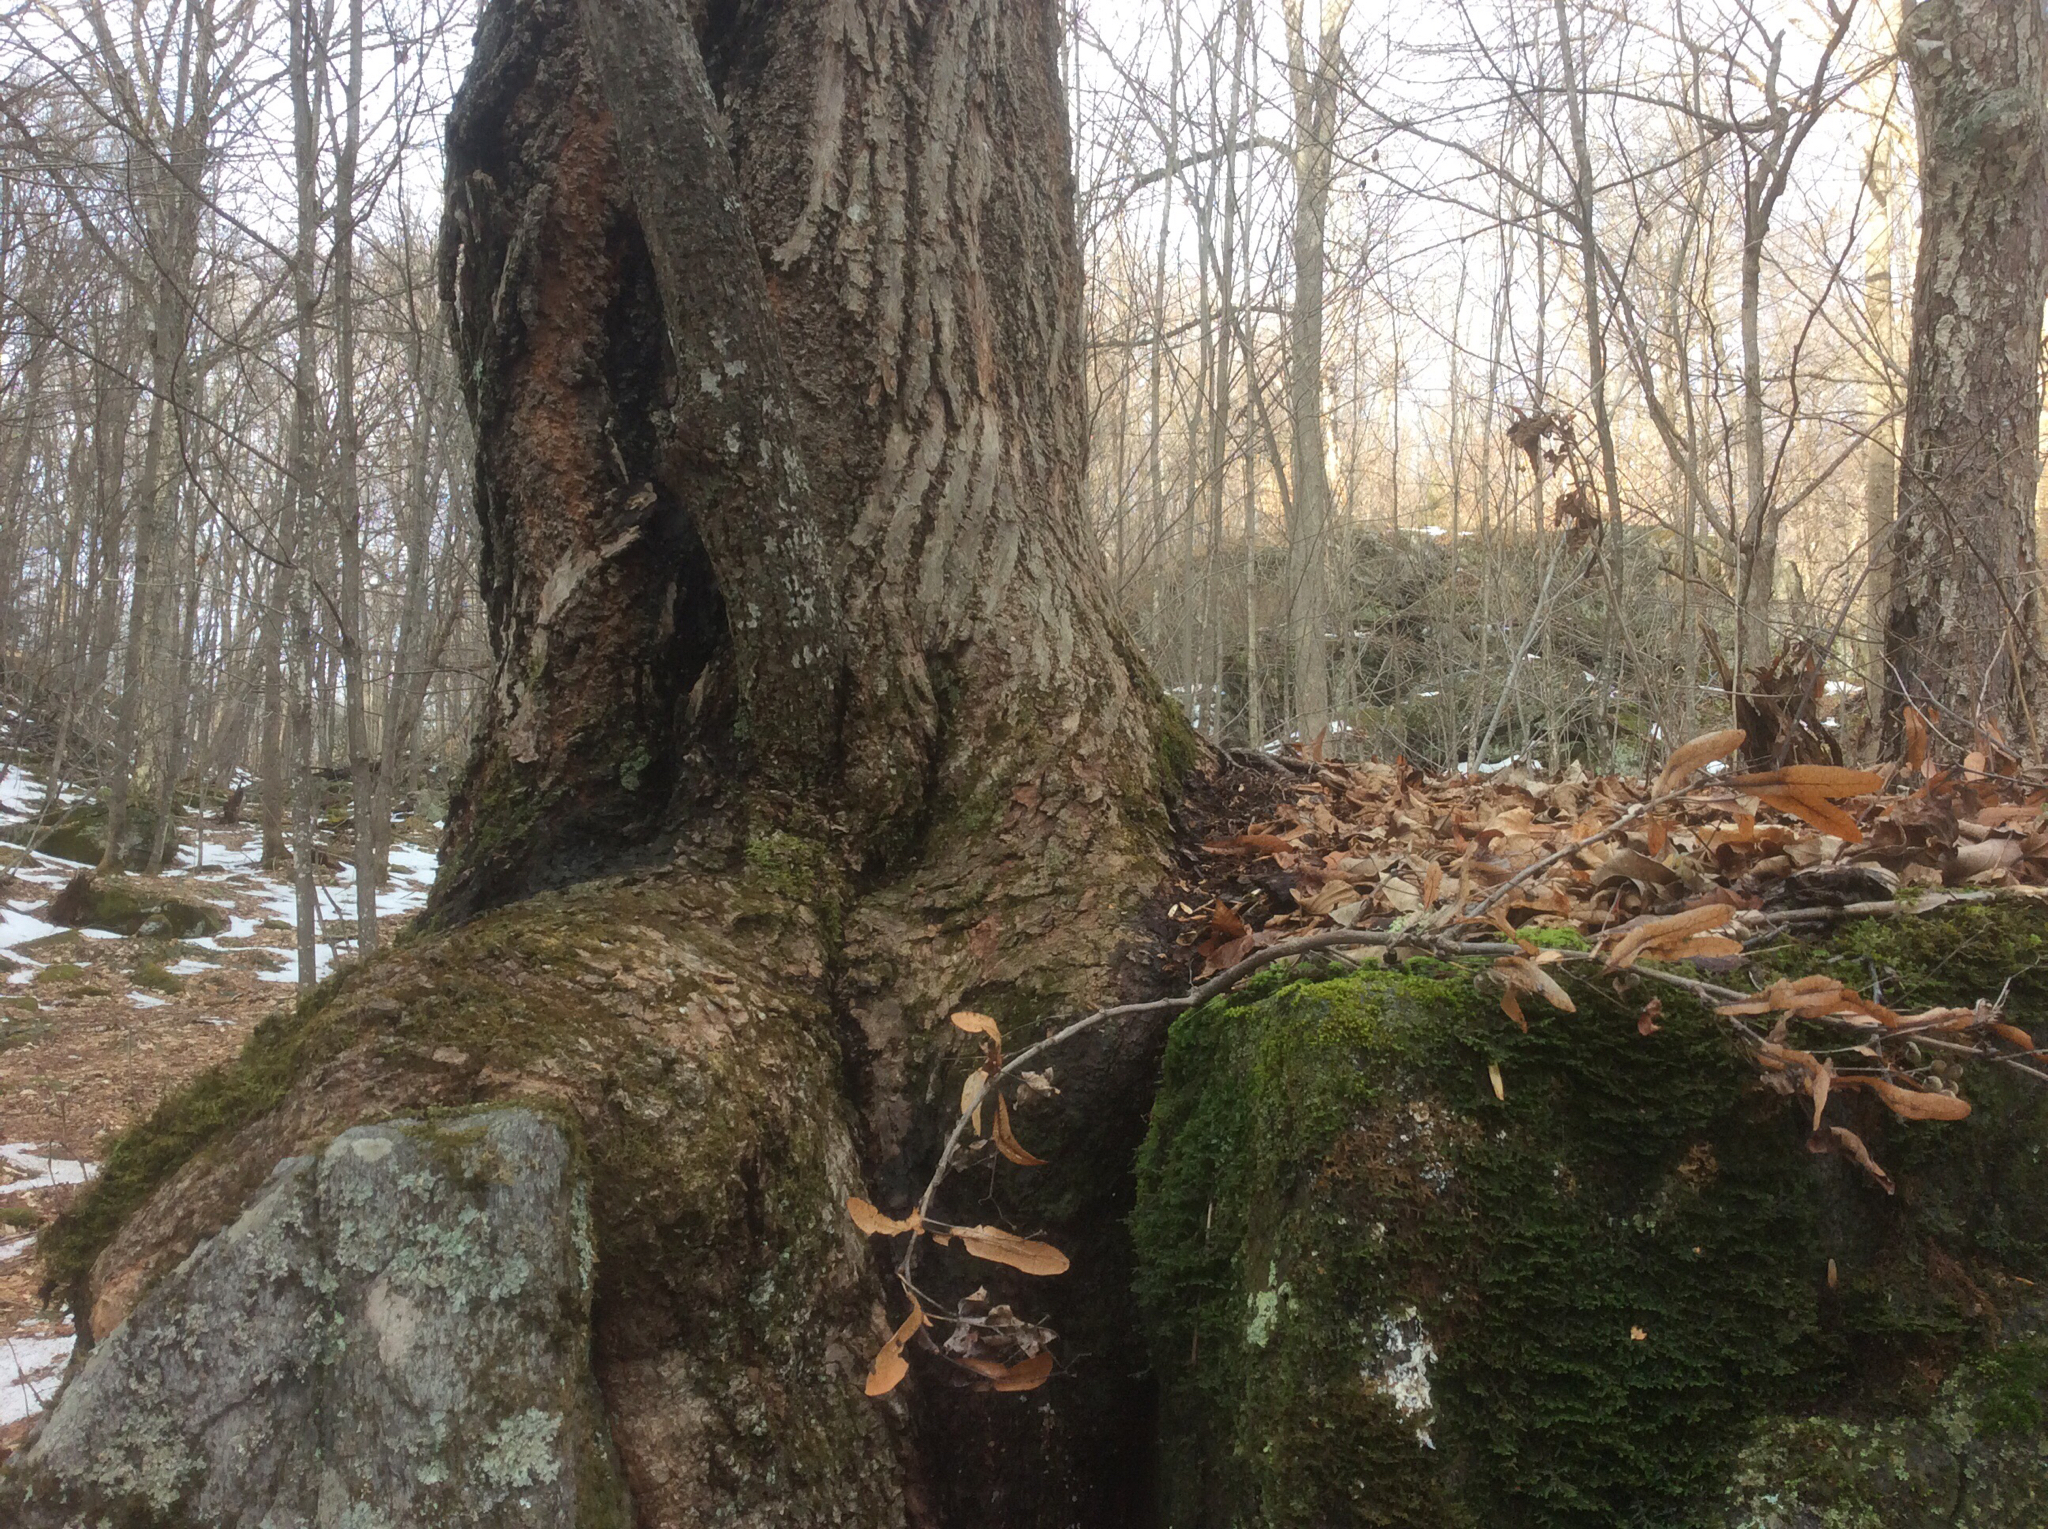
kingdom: Plantae
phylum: Tracheophyta
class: Magnoliopsida
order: Malvales
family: Malvaceae
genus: Tilia
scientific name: Tilia americana
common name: Basswood
